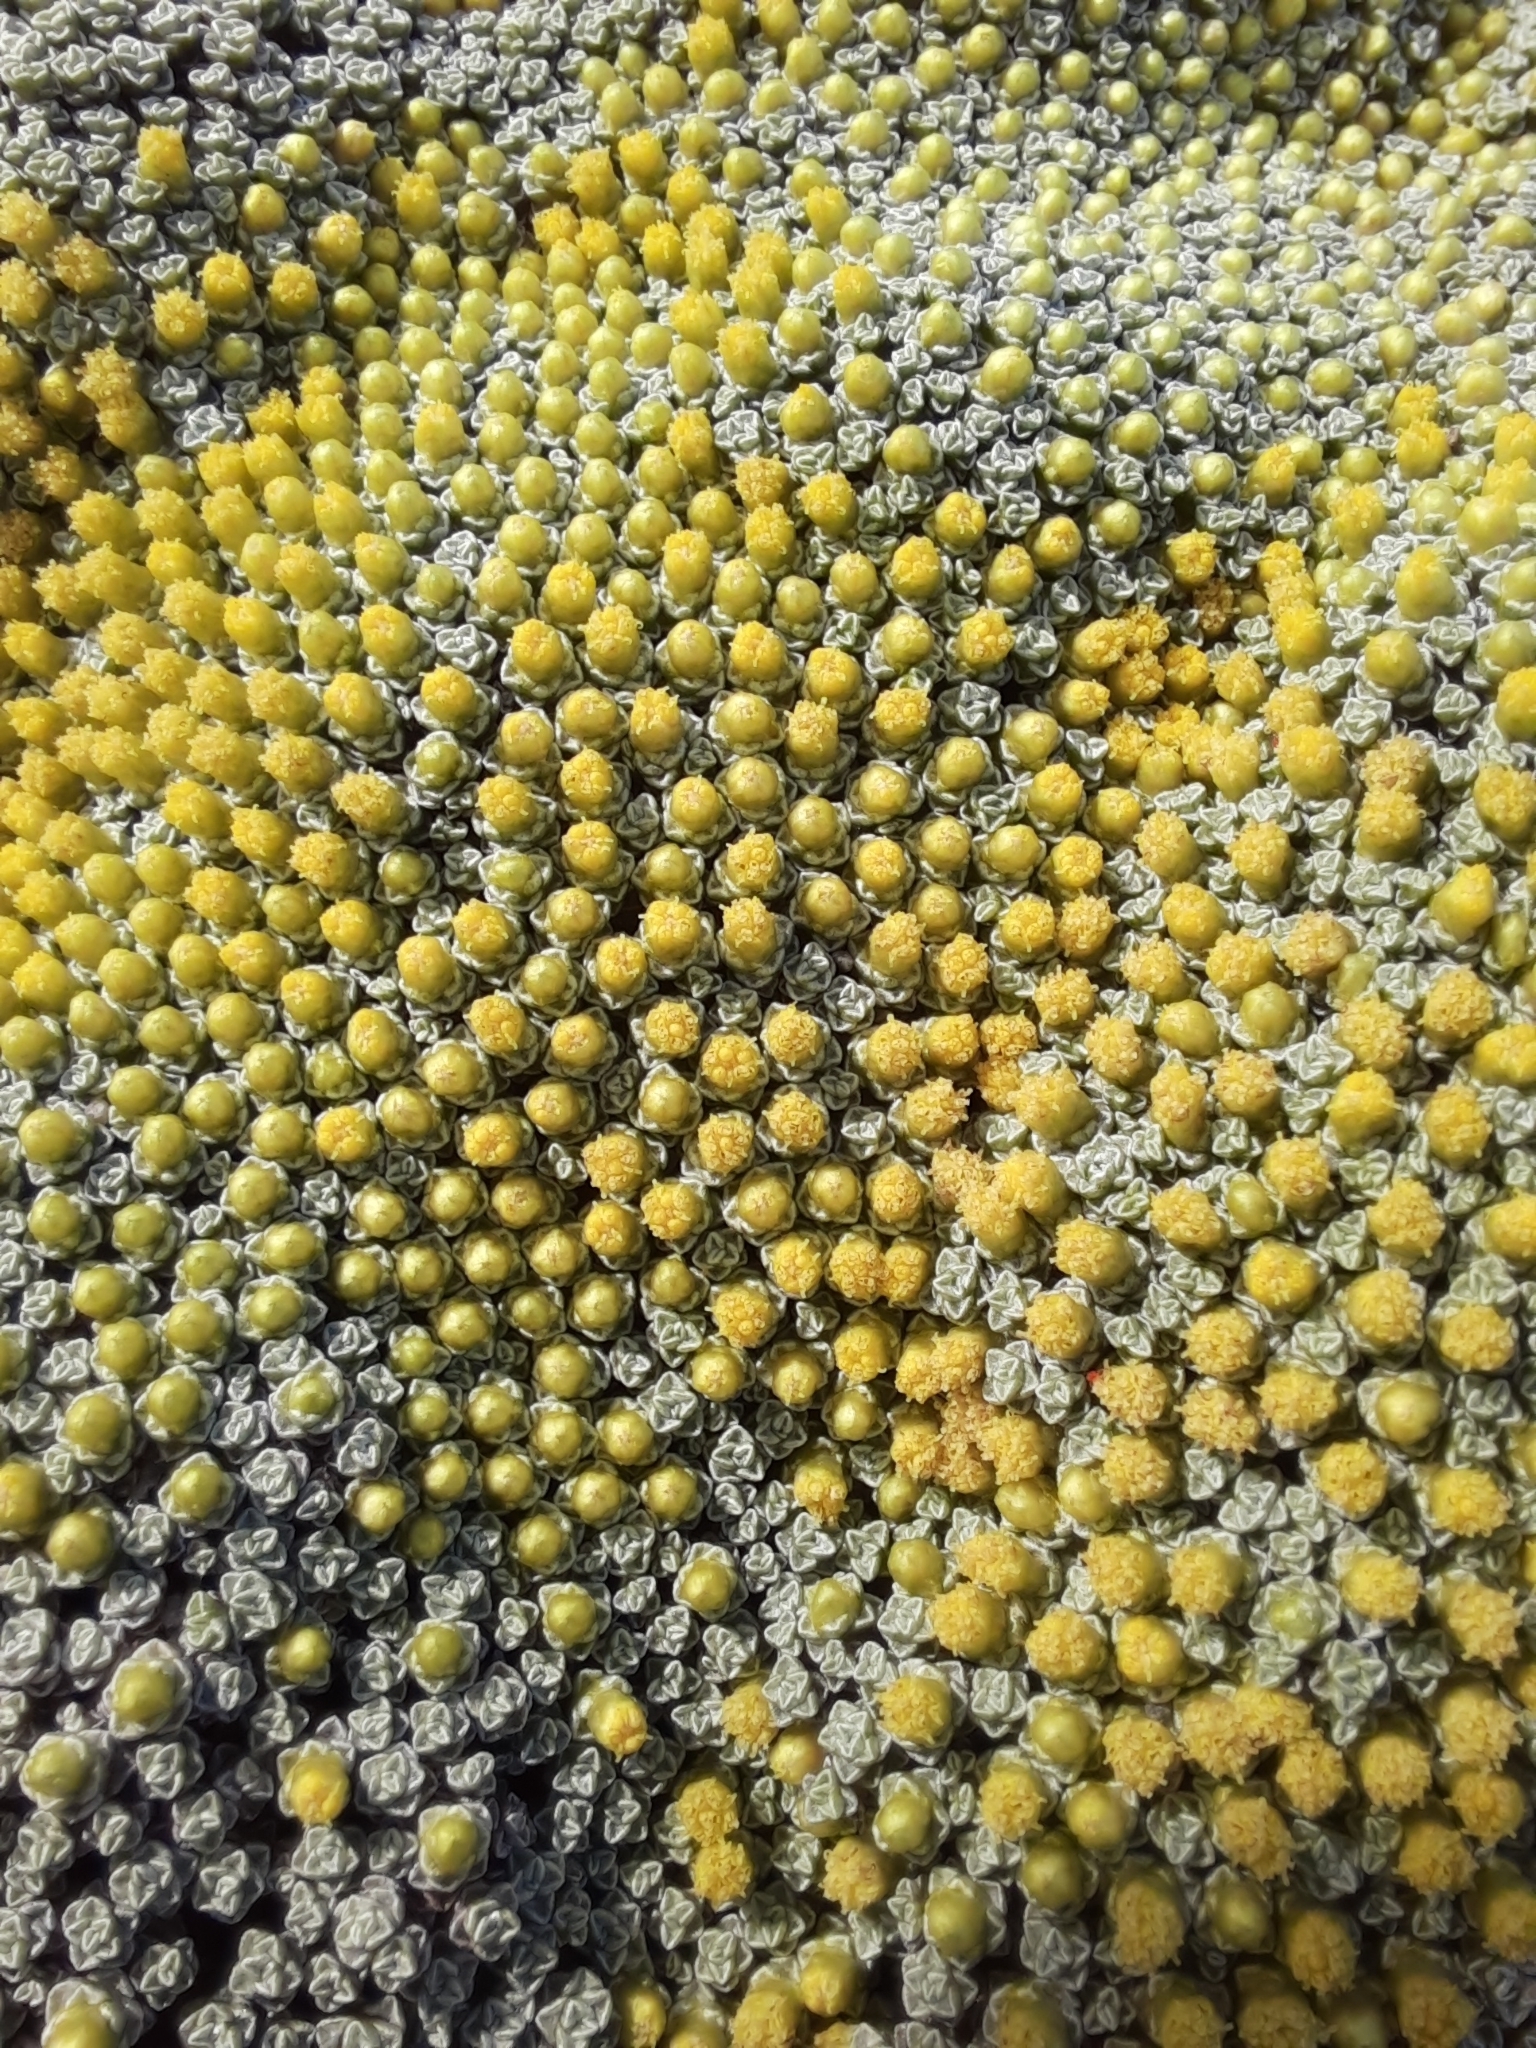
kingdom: Plantae
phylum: Tracheophyta
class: Magnoliopsida
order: Asterales
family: Asteraceae
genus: Raoulia
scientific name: Raoulia australis
